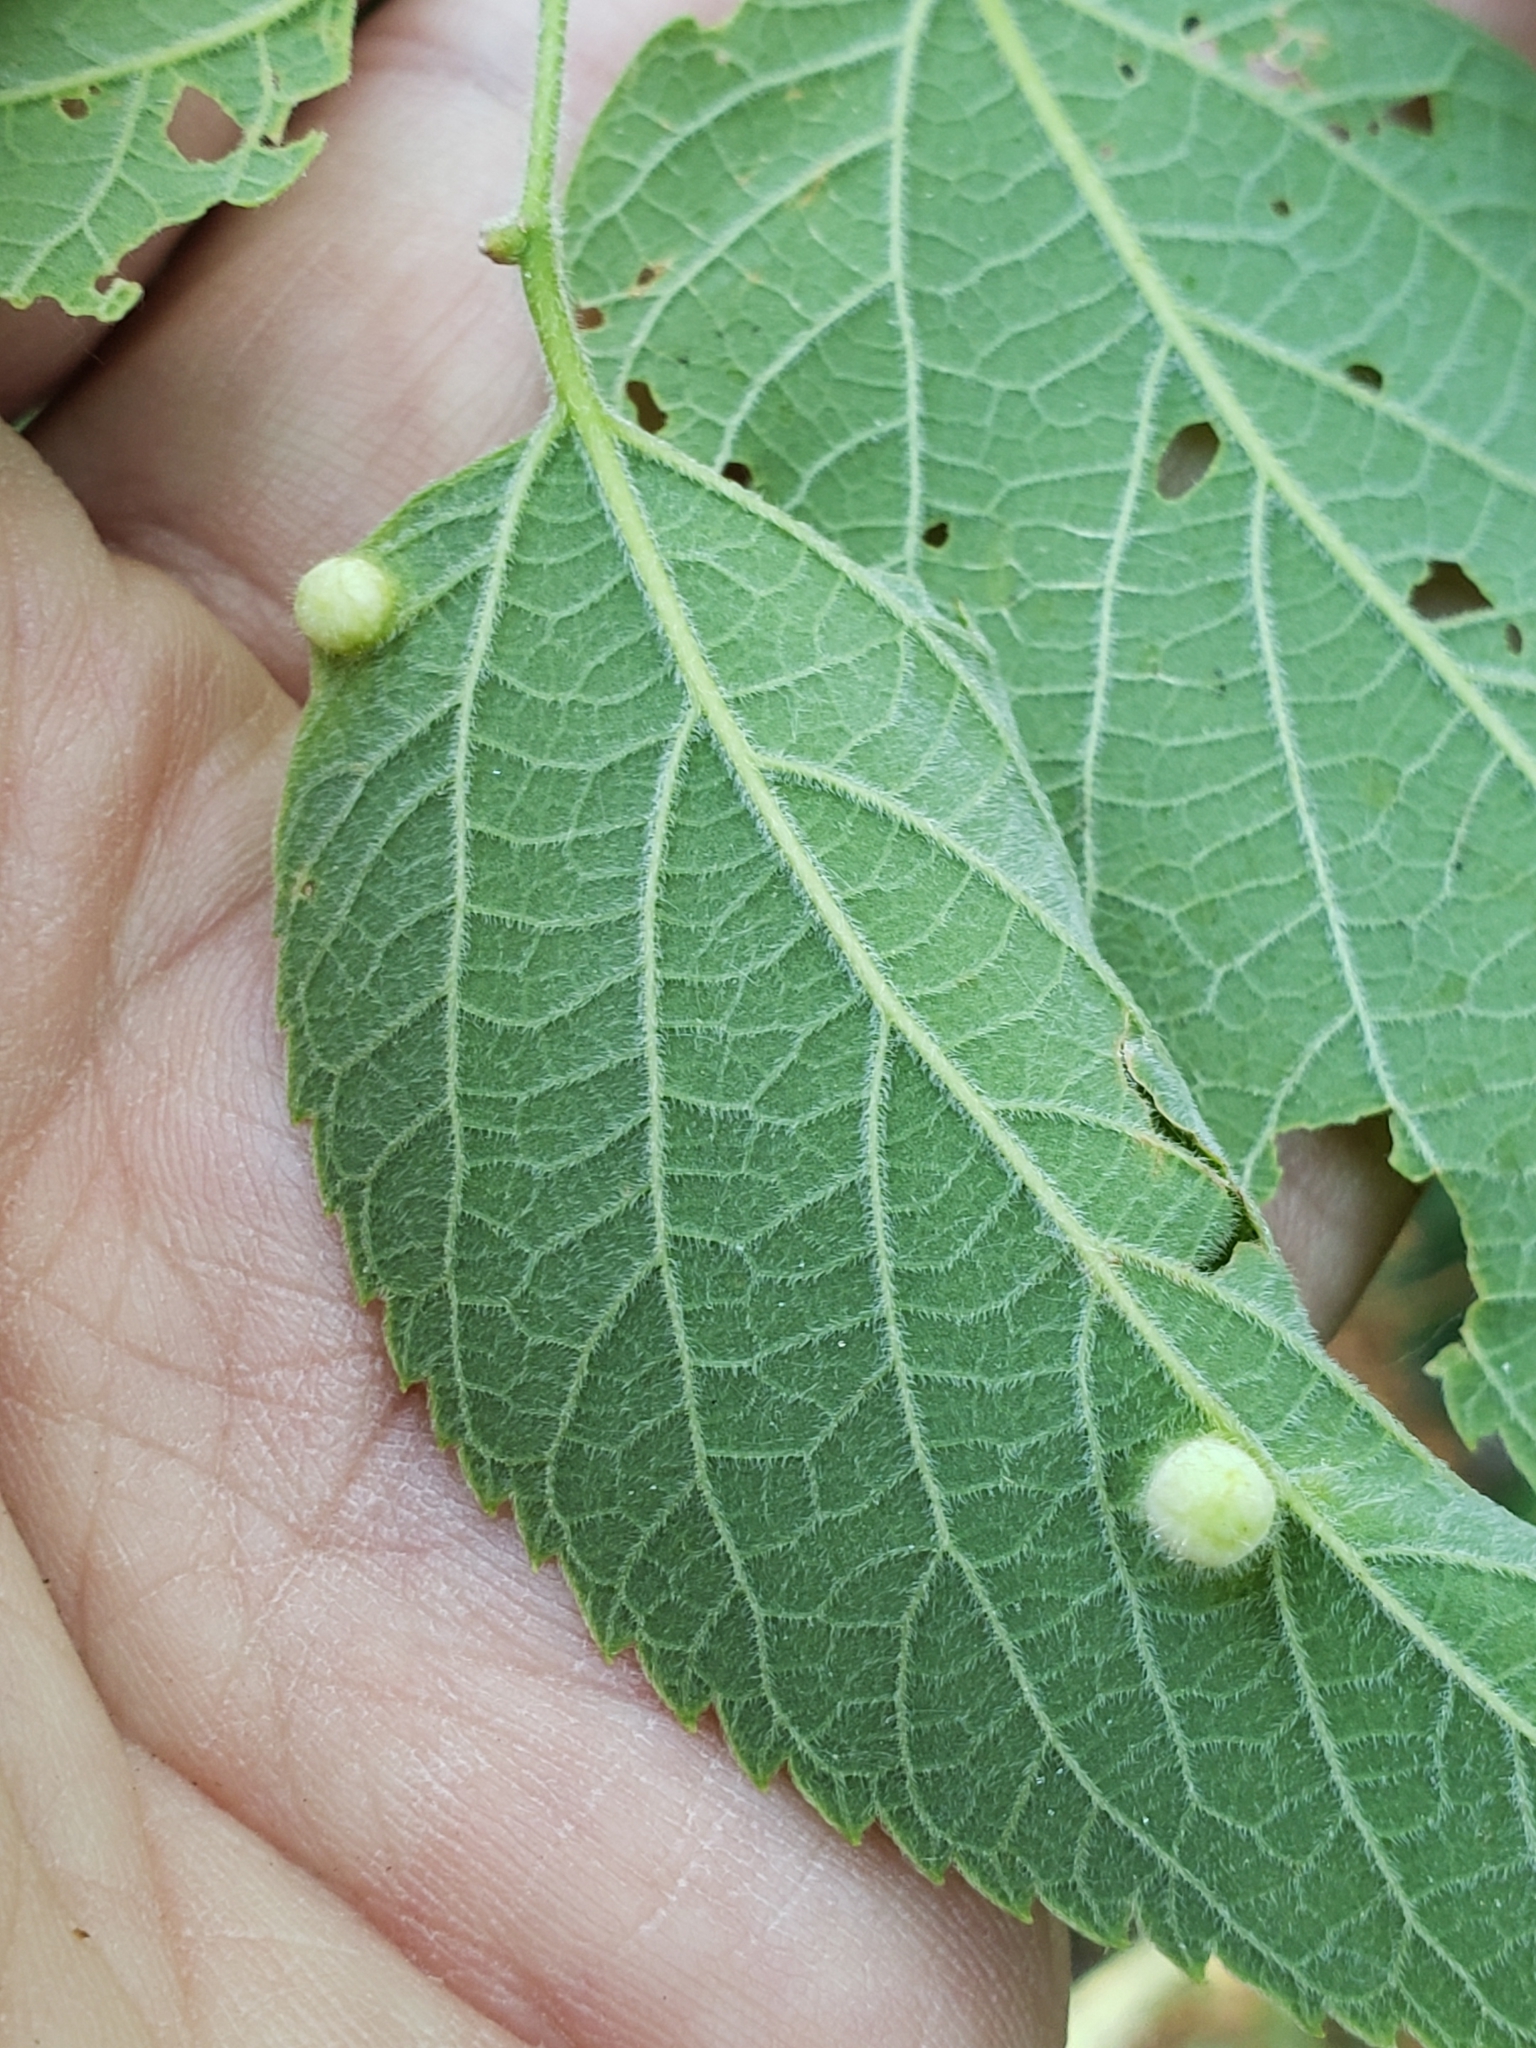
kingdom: Animalia
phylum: Arthropoda
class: Insecta
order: Hemiptera
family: Aphalaridae
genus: Pachypsylla
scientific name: Pachypsylla celtidismamma
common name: Hackberry nipplegall psyllid
